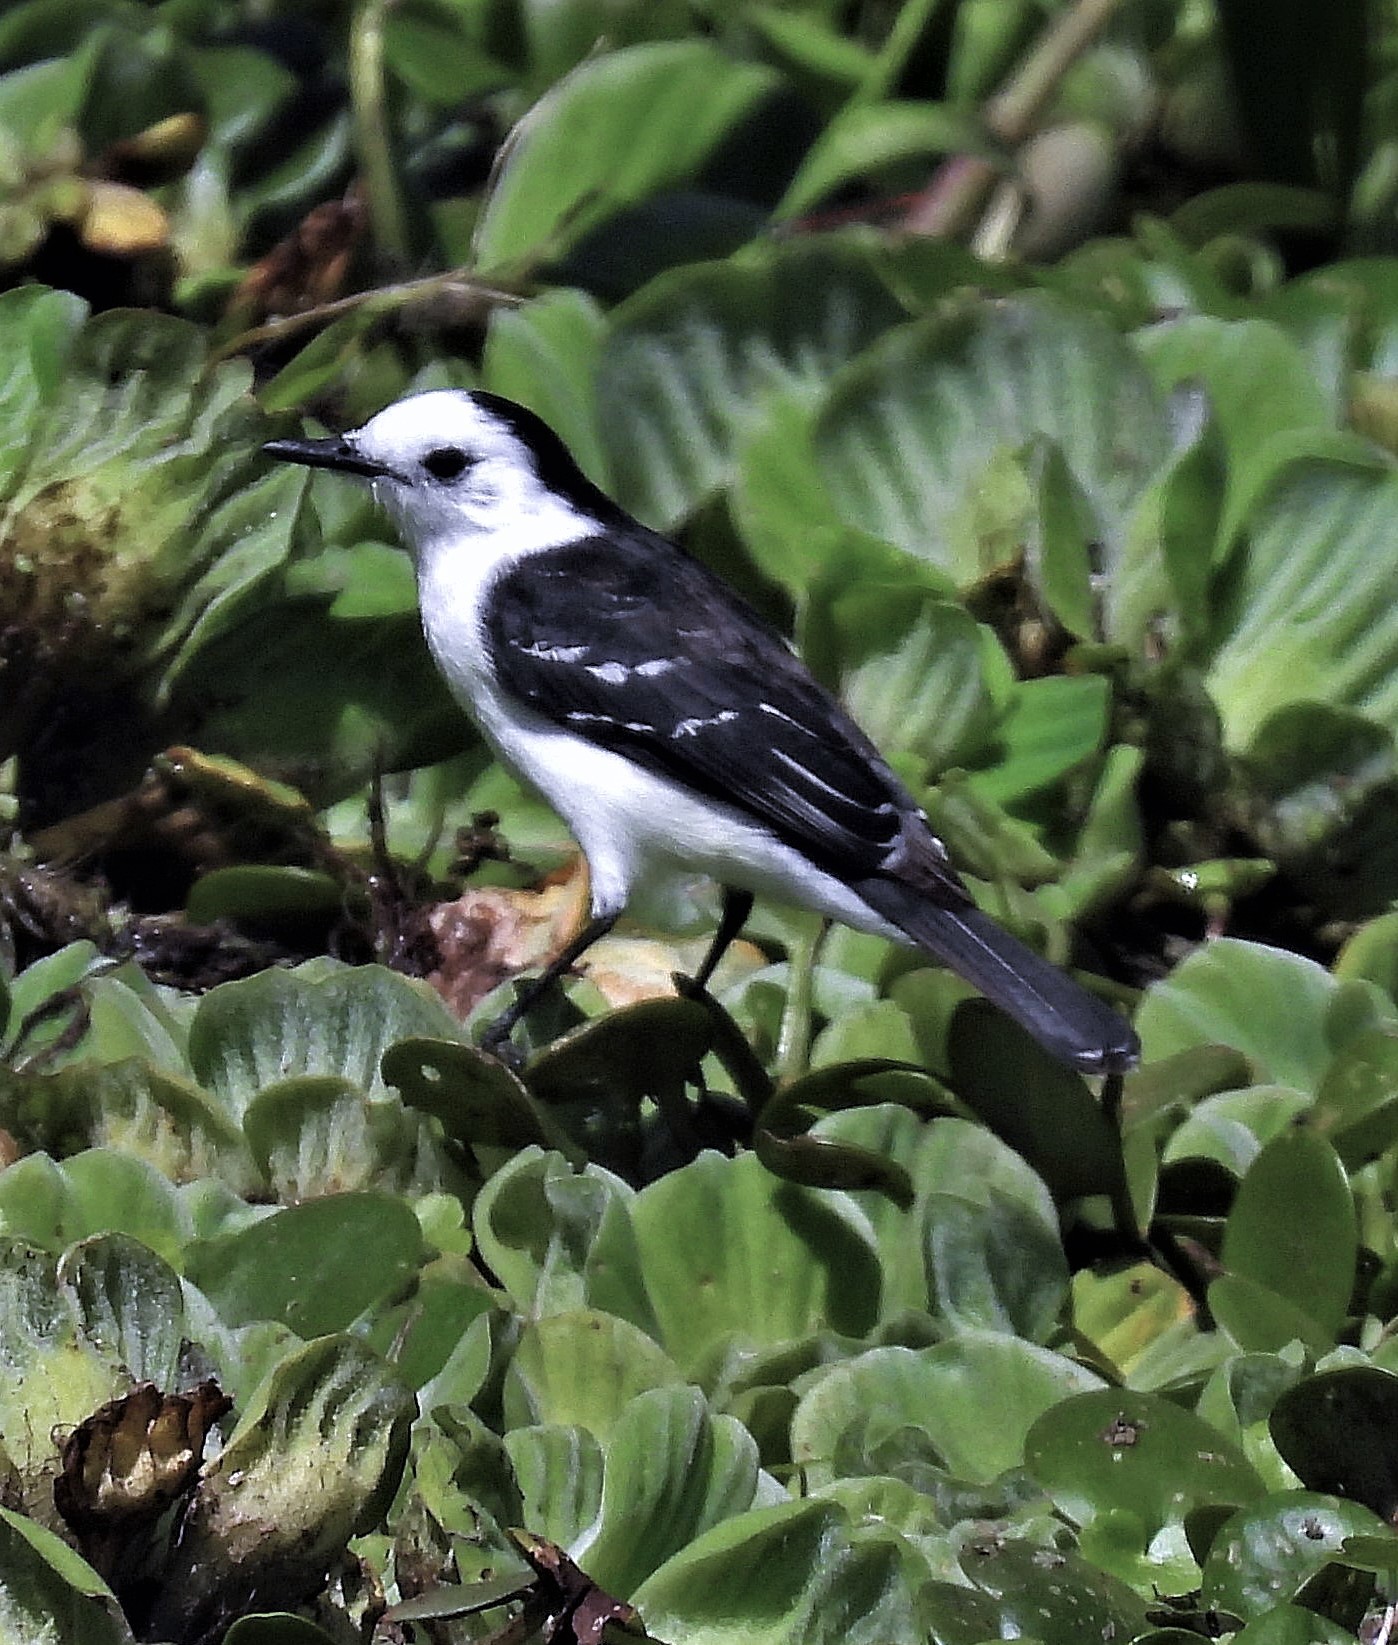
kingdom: Animalia
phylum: Chordata
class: Aves
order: Passeriformes
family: Tyrannidae
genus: Fluvicola
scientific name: Fluvicola pica
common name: Pied water-tyrant
